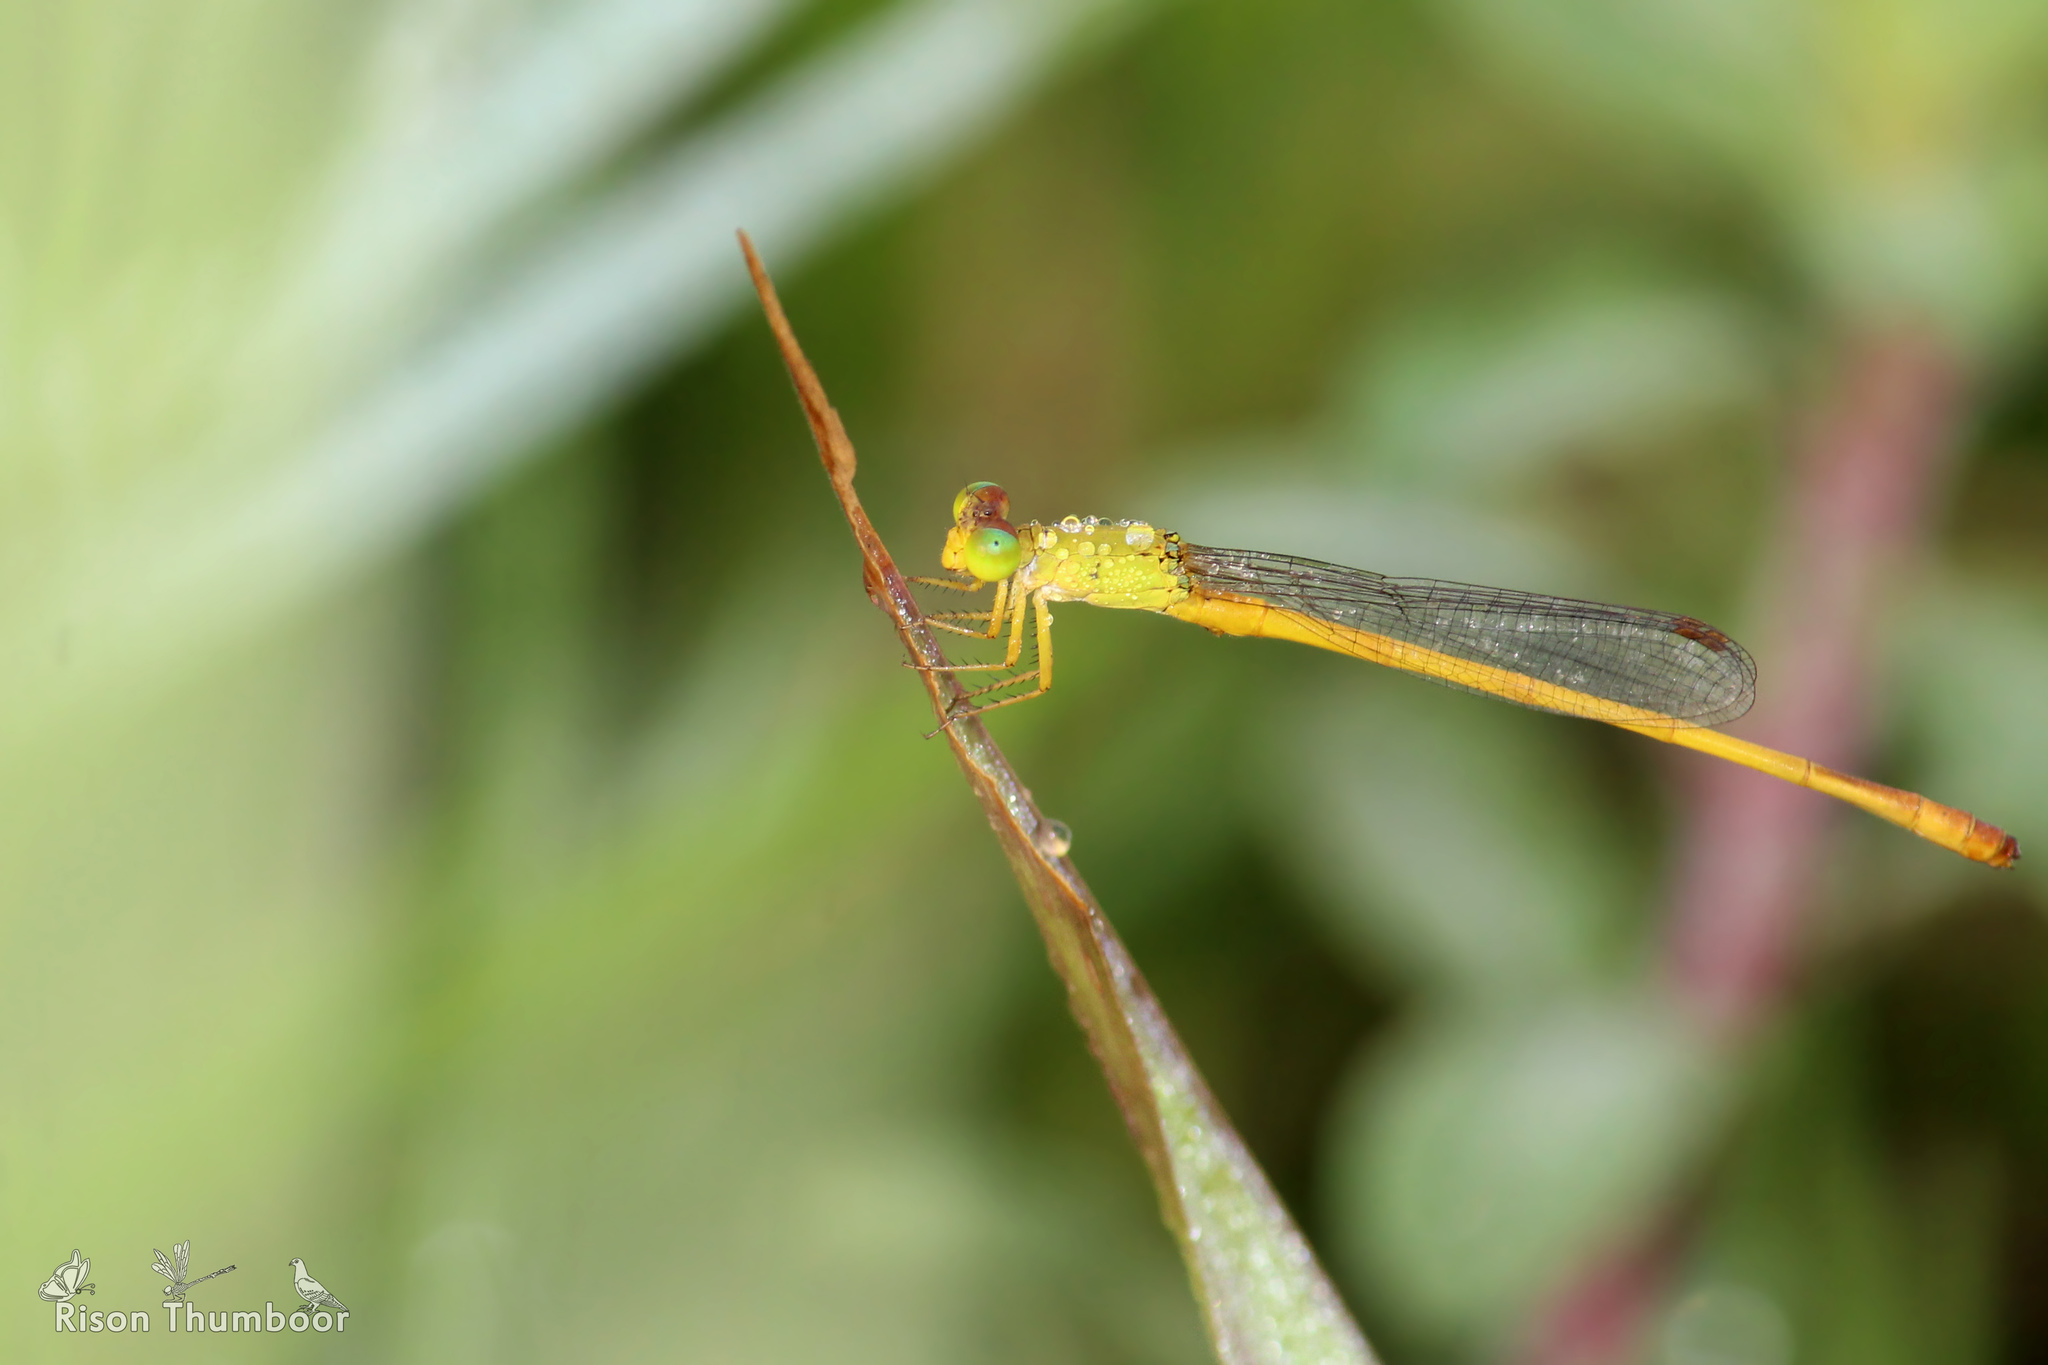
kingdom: Animalia
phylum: Arthropoda
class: Insecta
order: Odonata
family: Coenagrionidae
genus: Ceriagrion
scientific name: Ceriagrion coromandelianum
